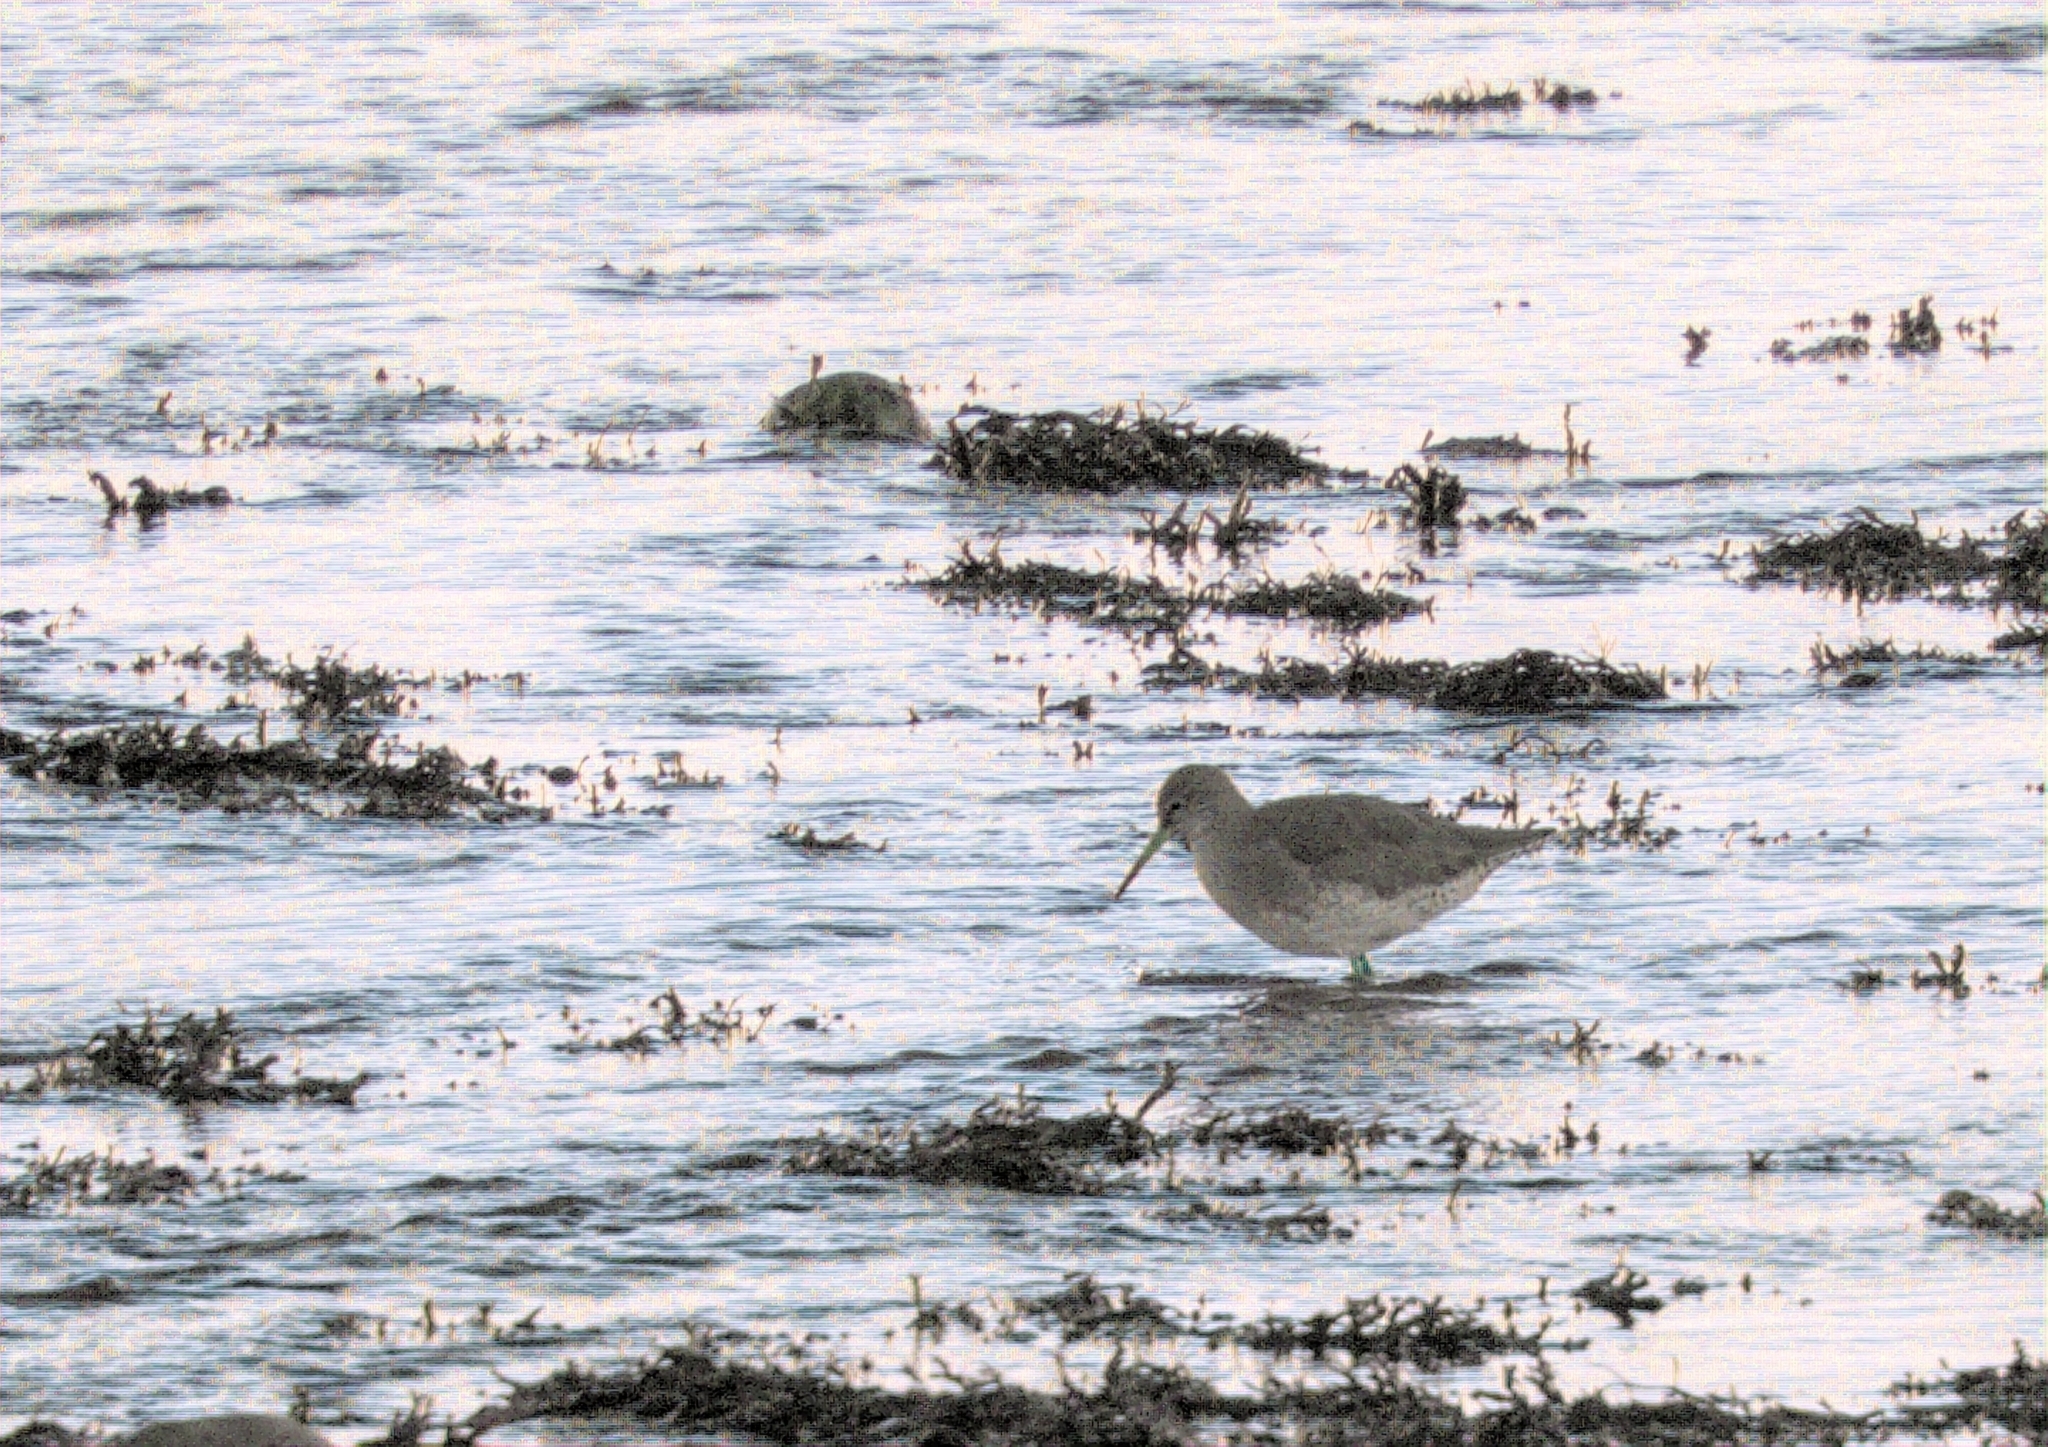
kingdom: Animalia
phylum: Chordata
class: Aves
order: Charadriiformes
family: Scolopacidae
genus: Tringa
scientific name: Tringa totanus
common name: Common redshank
